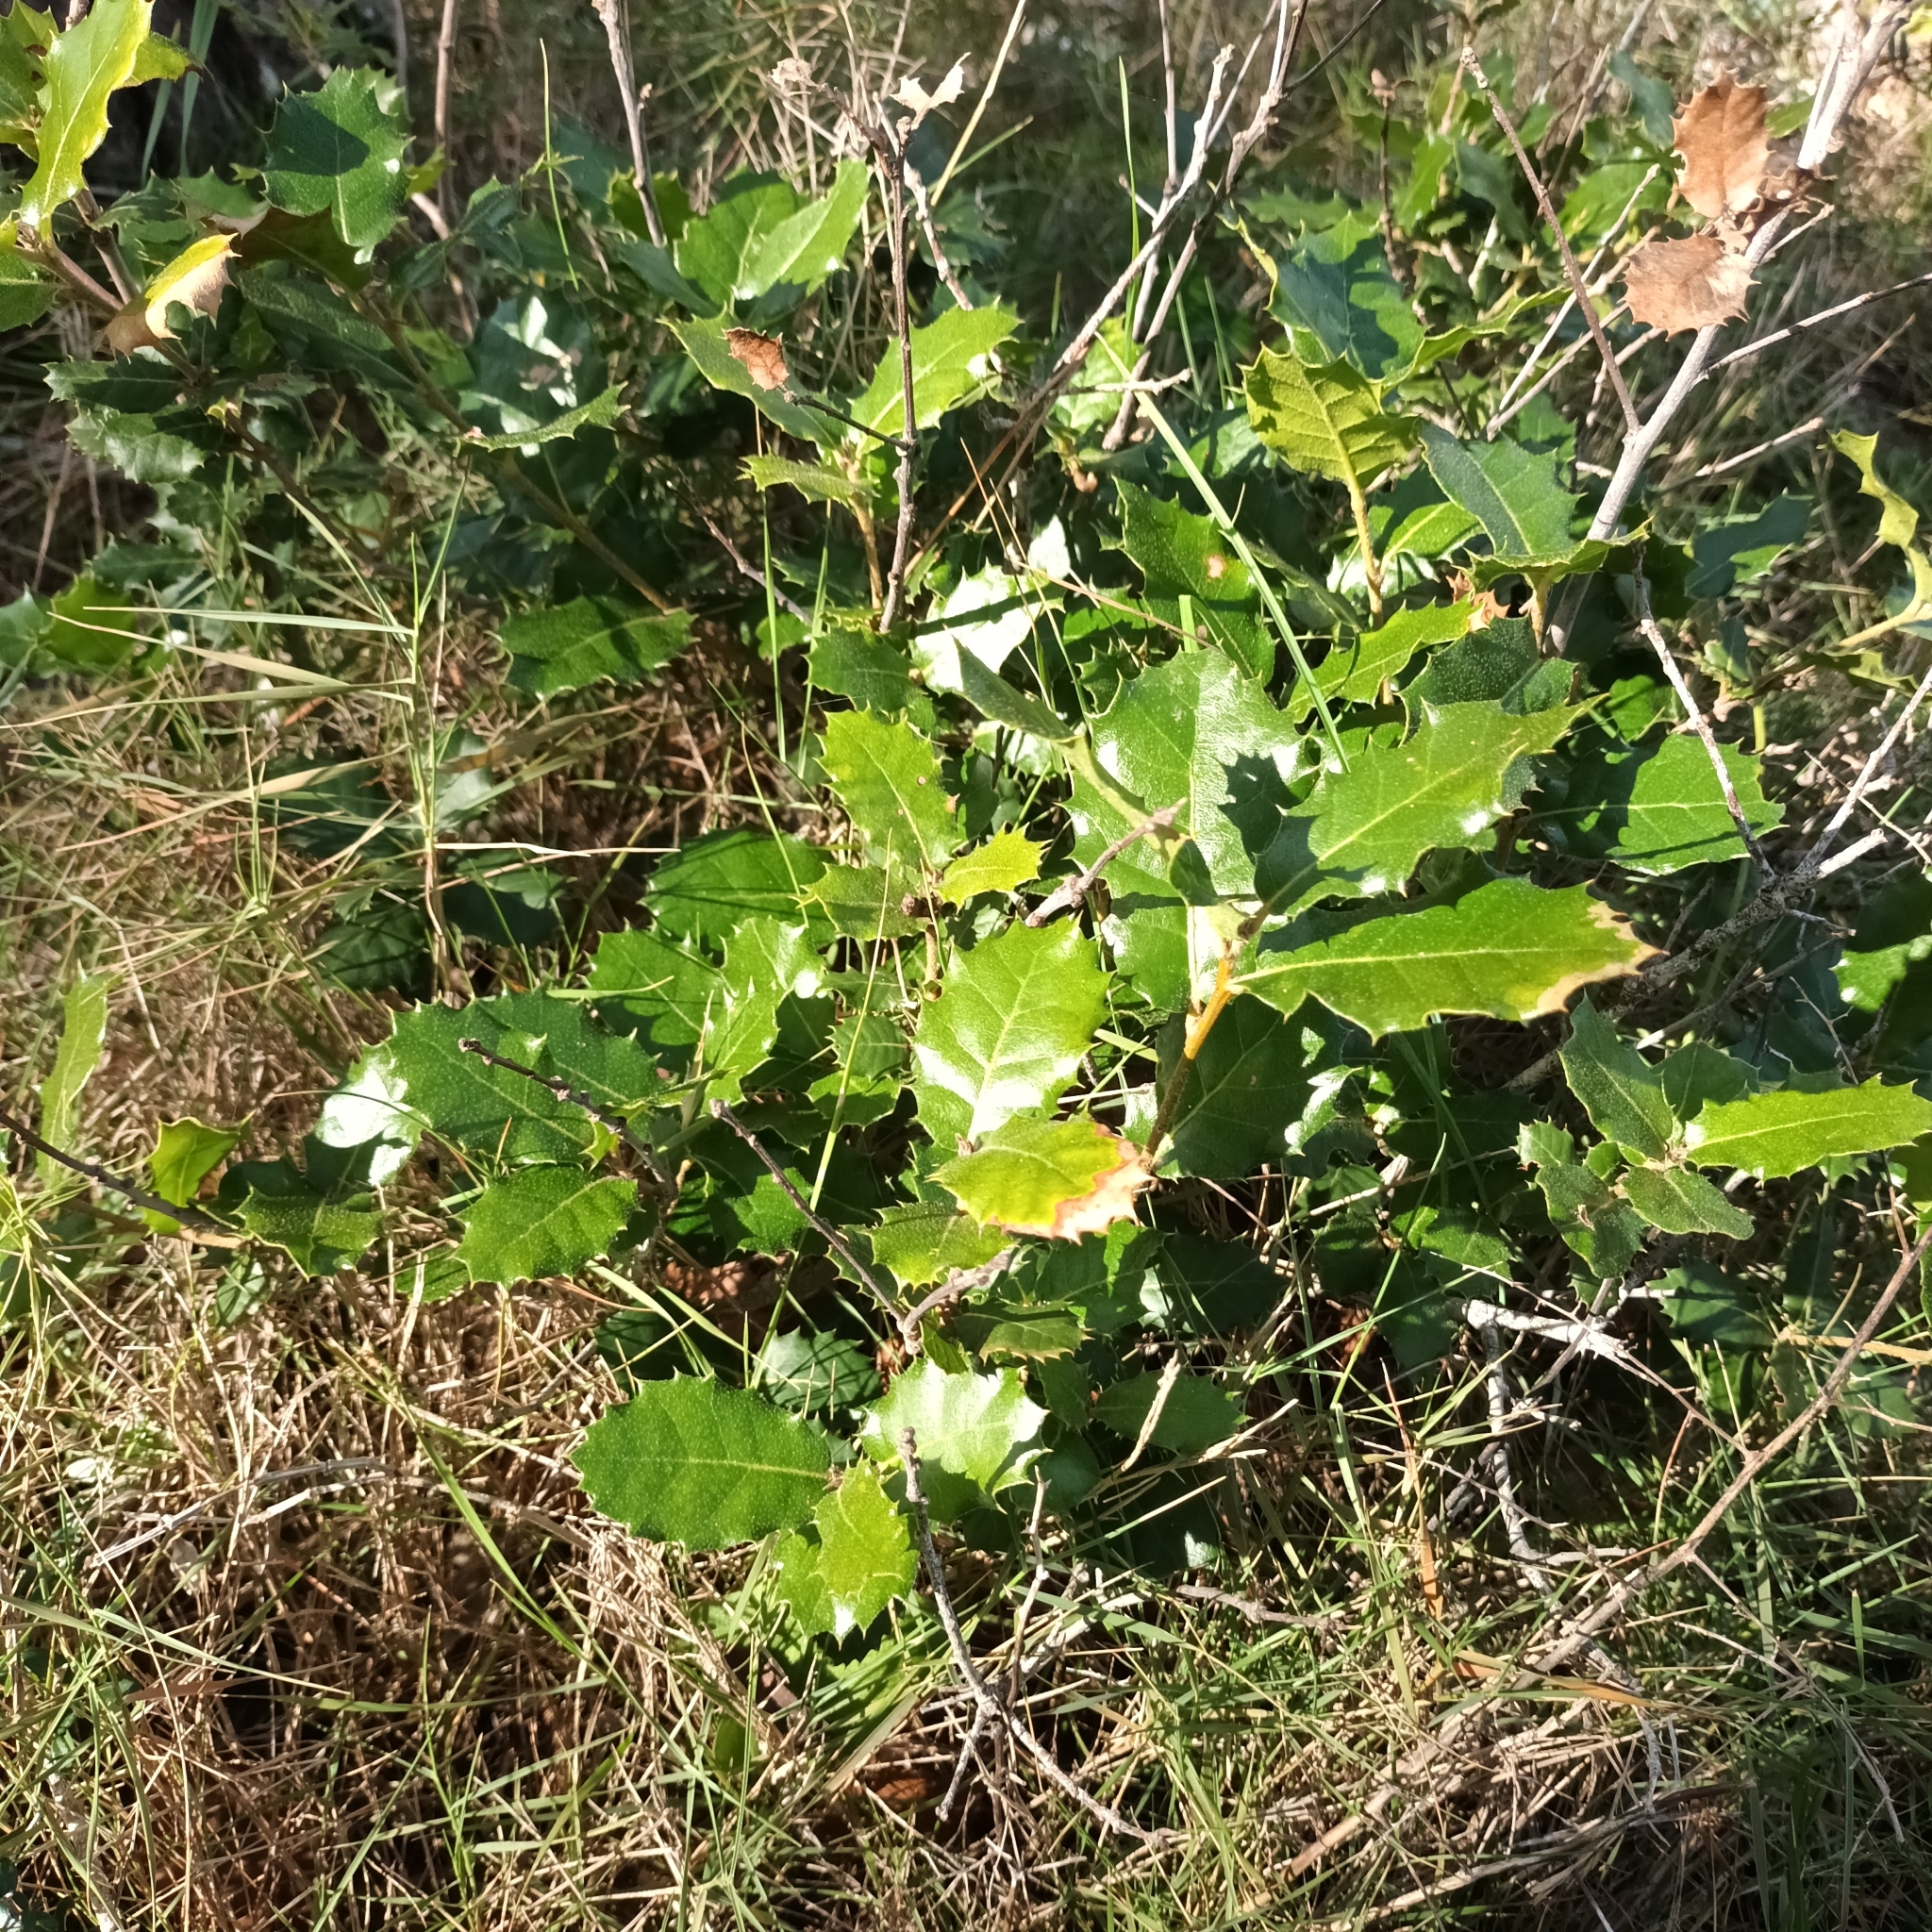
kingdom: Plantae
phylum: Tracheophyta
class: Magnoliopsida
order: Fagales
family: Fagaceae
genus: Quercus
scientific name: Quercus ilex
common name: Evergreen oak
